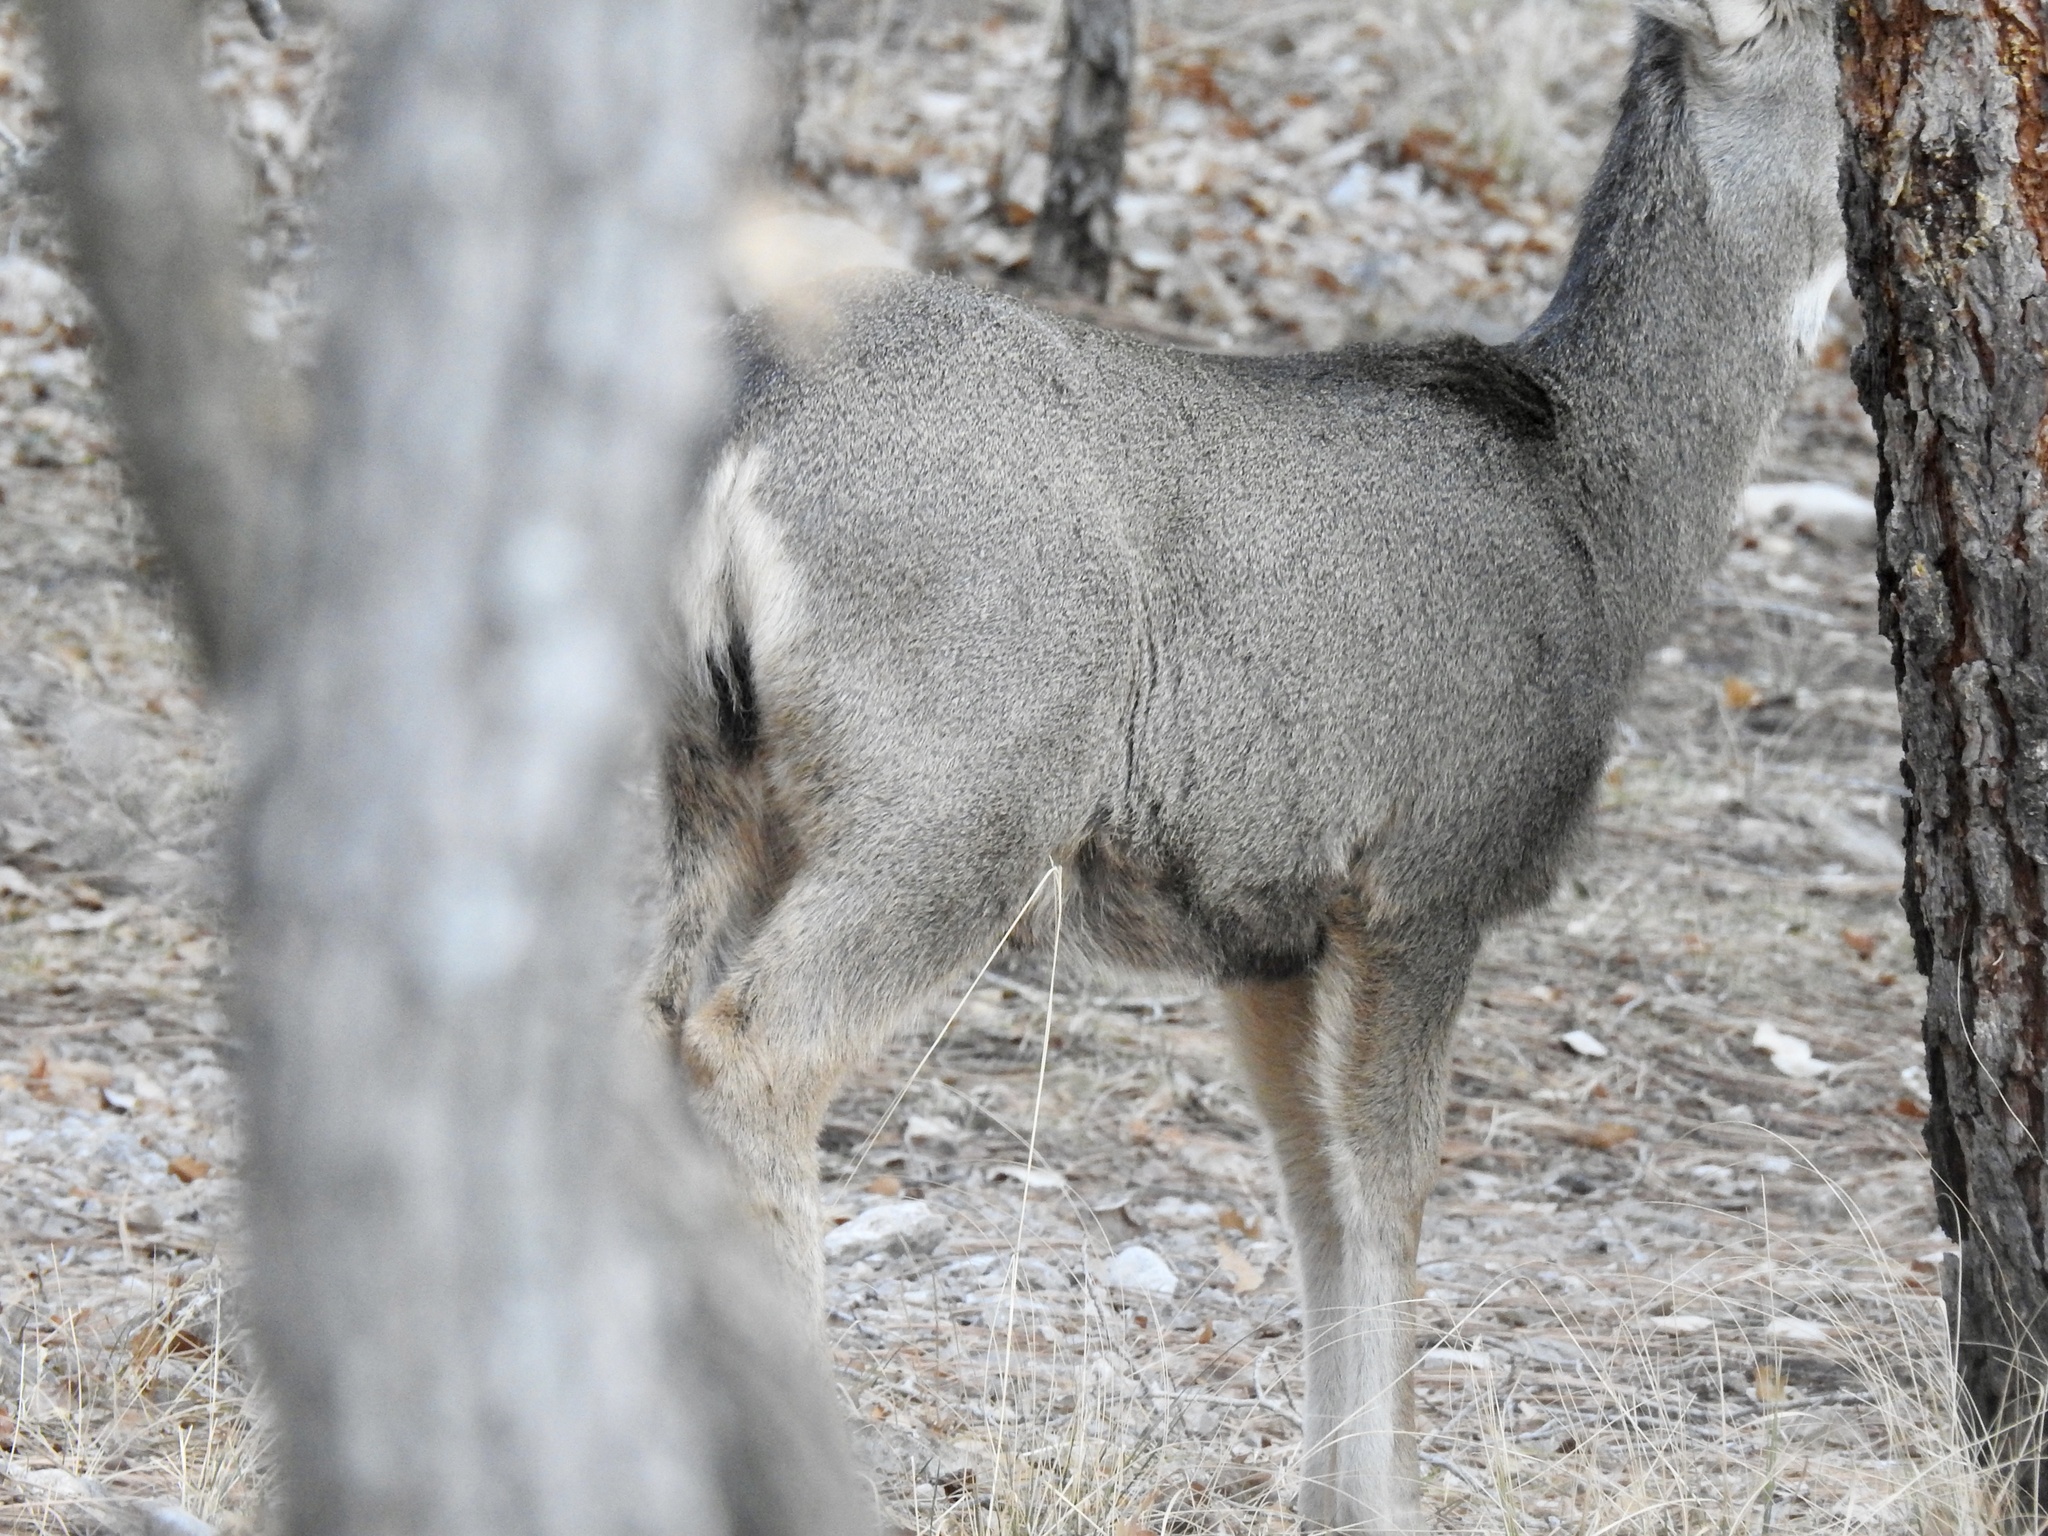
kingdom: Animalia
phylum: Chordata
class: Mammalia
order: Artiodactyla
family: Cervidae
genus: Odocoileus
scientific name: Odocoileus hemionus
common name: Mule deer
